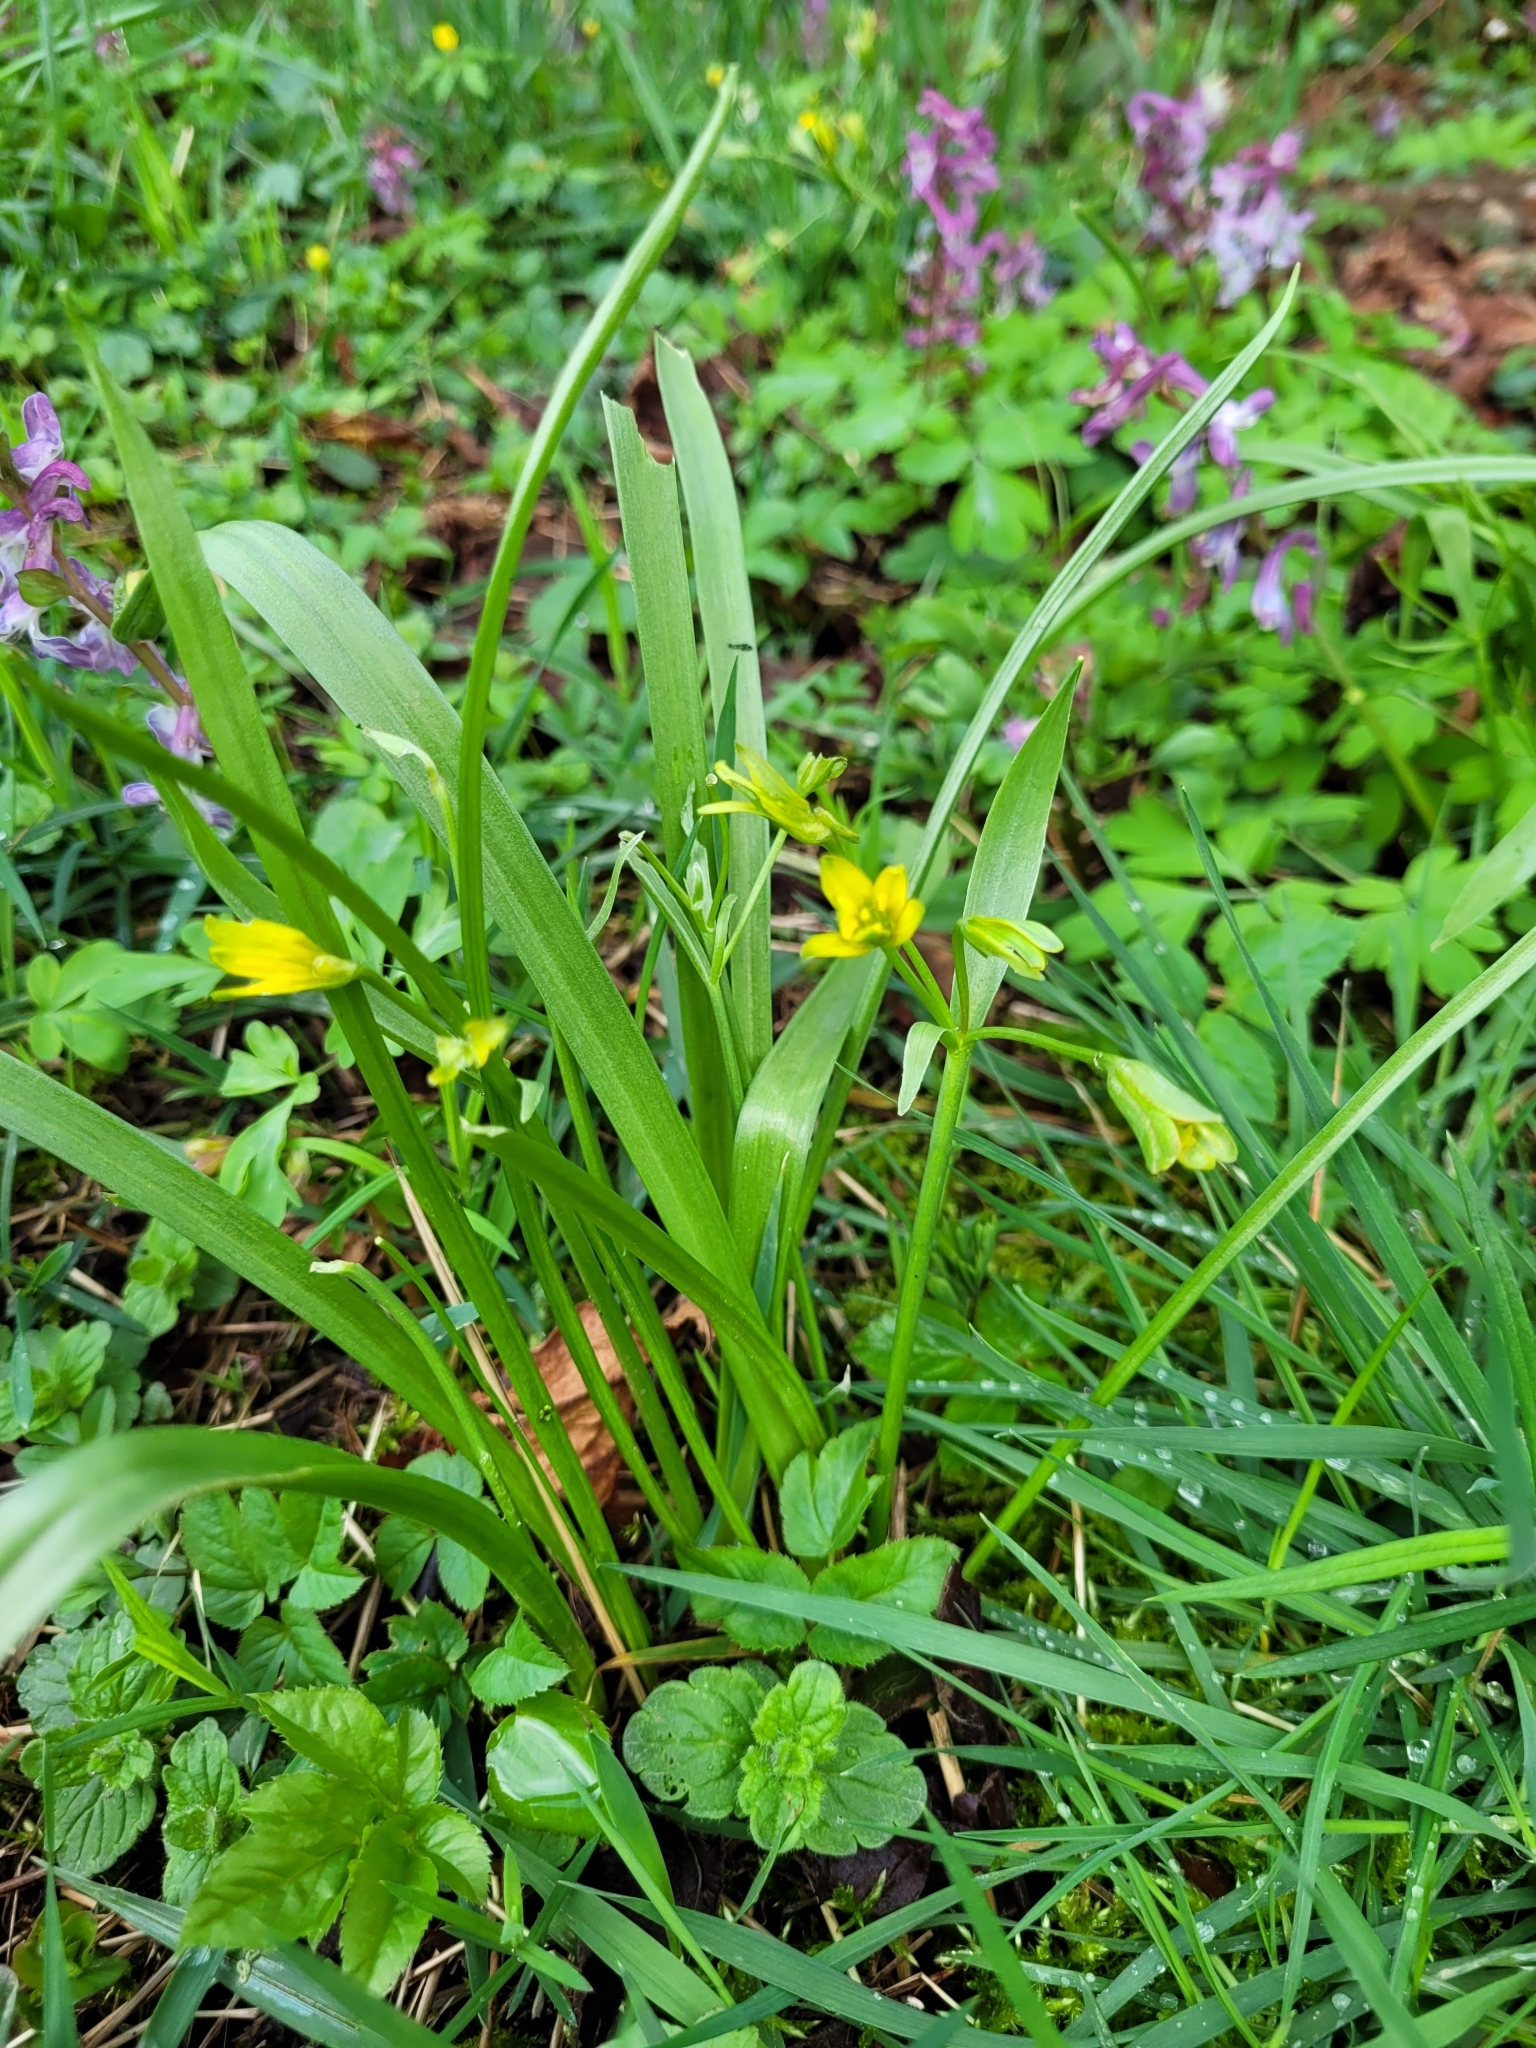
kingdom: Plantae
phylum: Tracheophyta
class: Liliopsida
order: Liliales
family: Liliaceae
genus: Gagea
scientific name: Gagea lutea
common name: Yellow star-of-bethlehem
